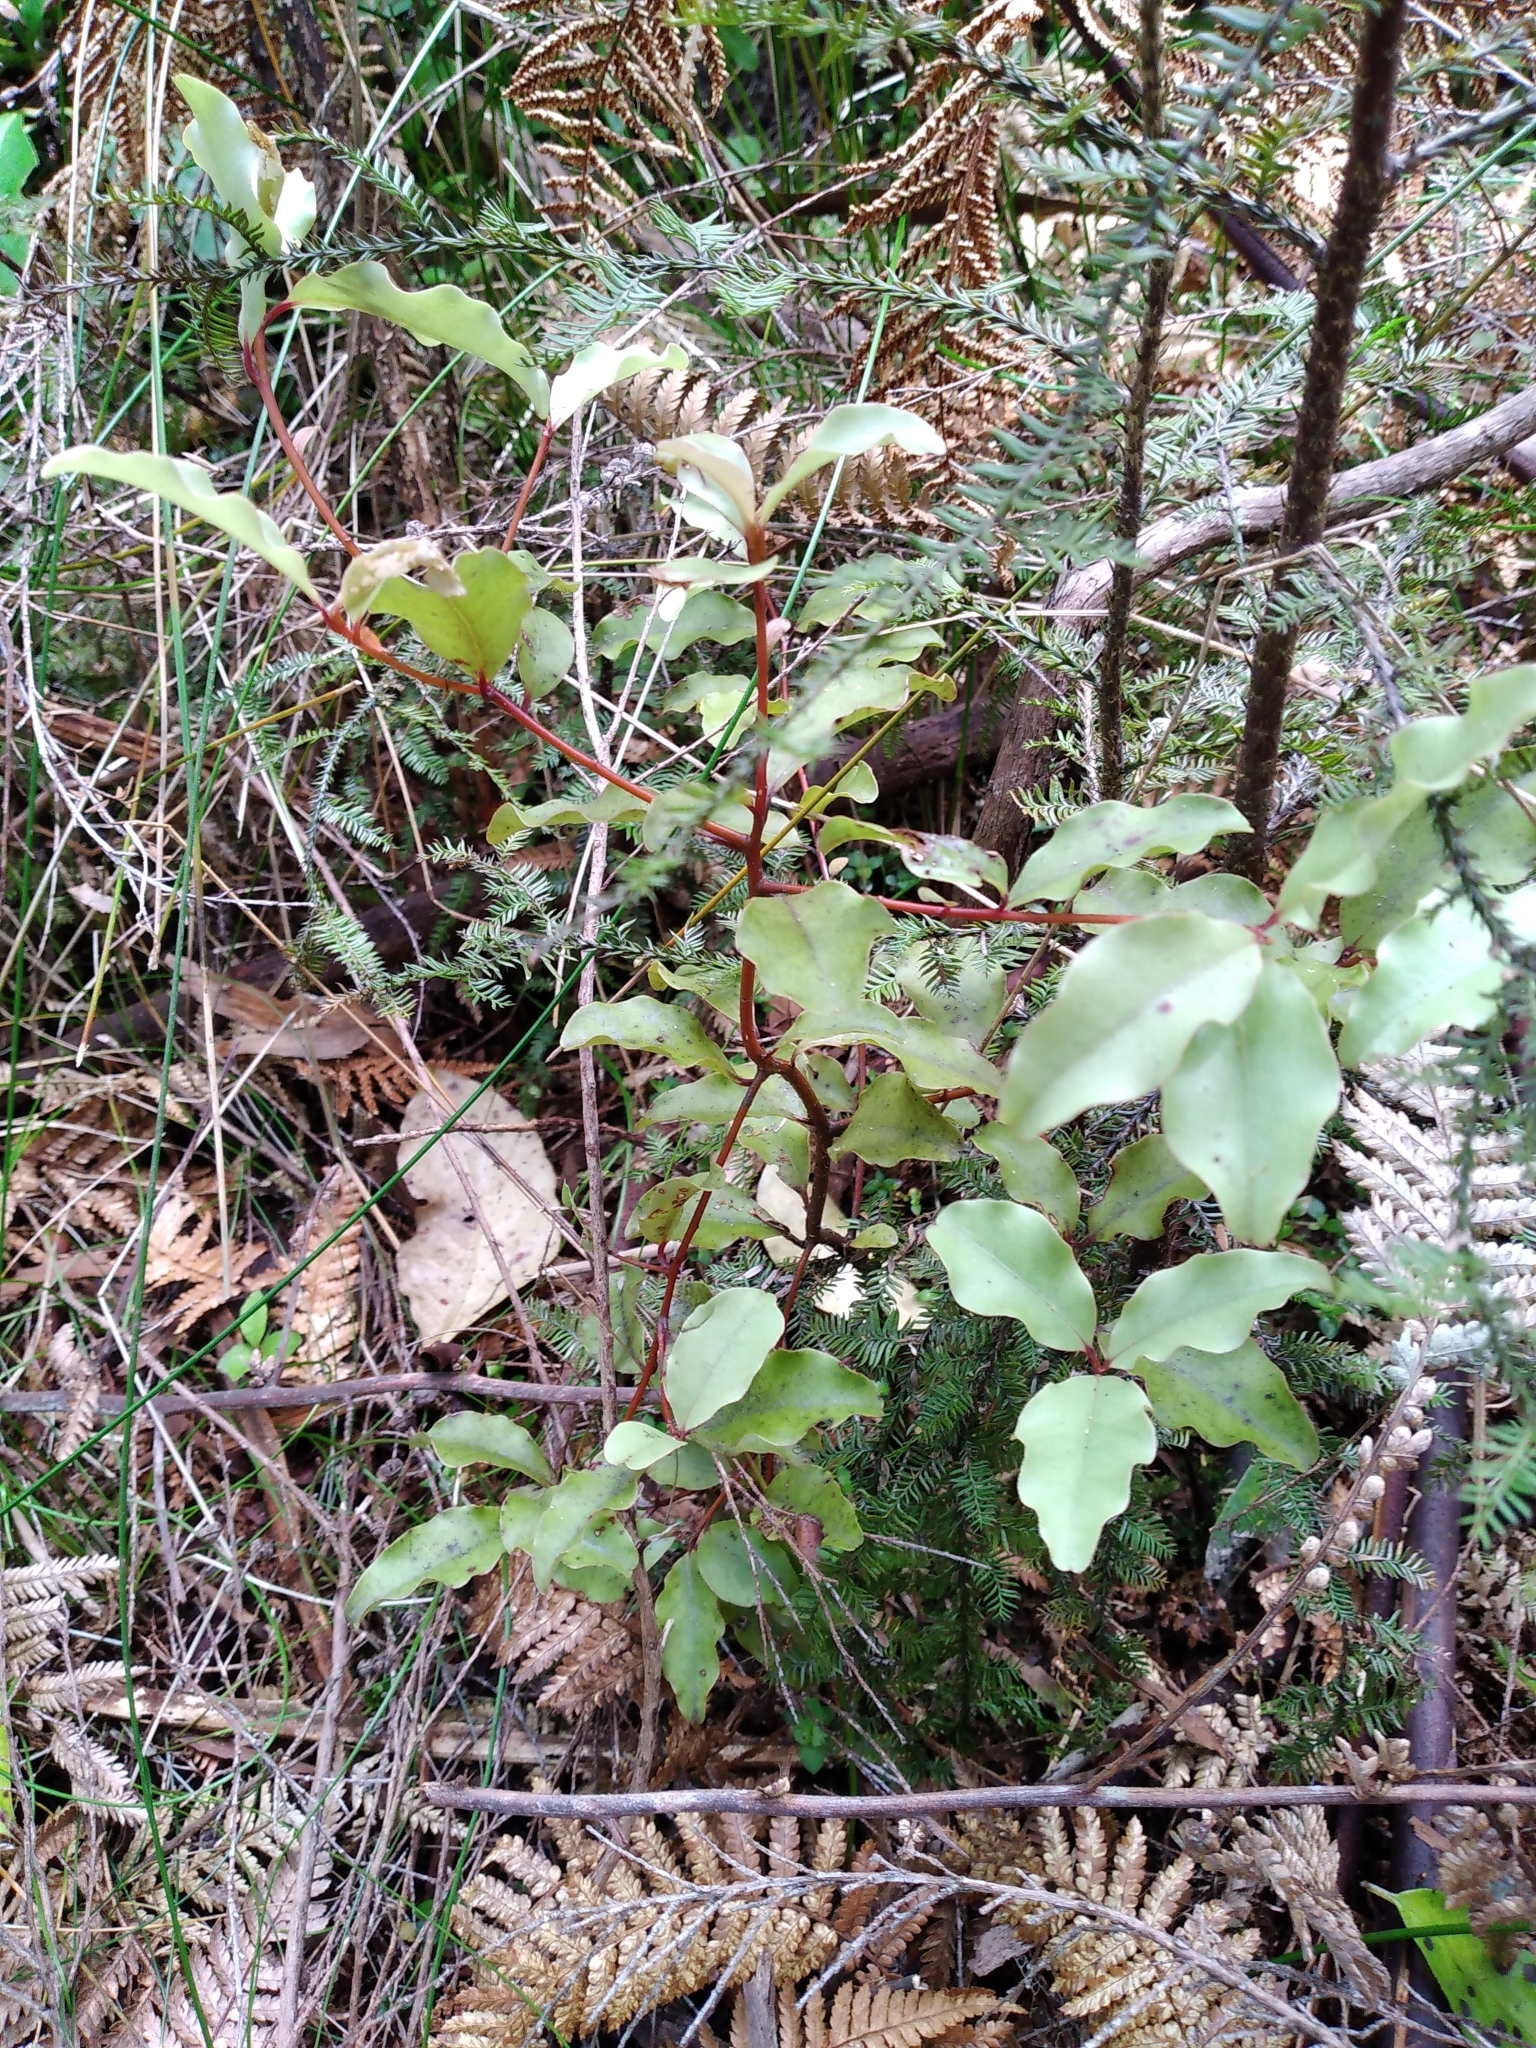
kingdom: Plantae
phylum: Tracheophyta
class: Magnoliopsida
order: Ericales
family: Primulaceae
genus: Myrsine
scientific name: Myrsine australis
